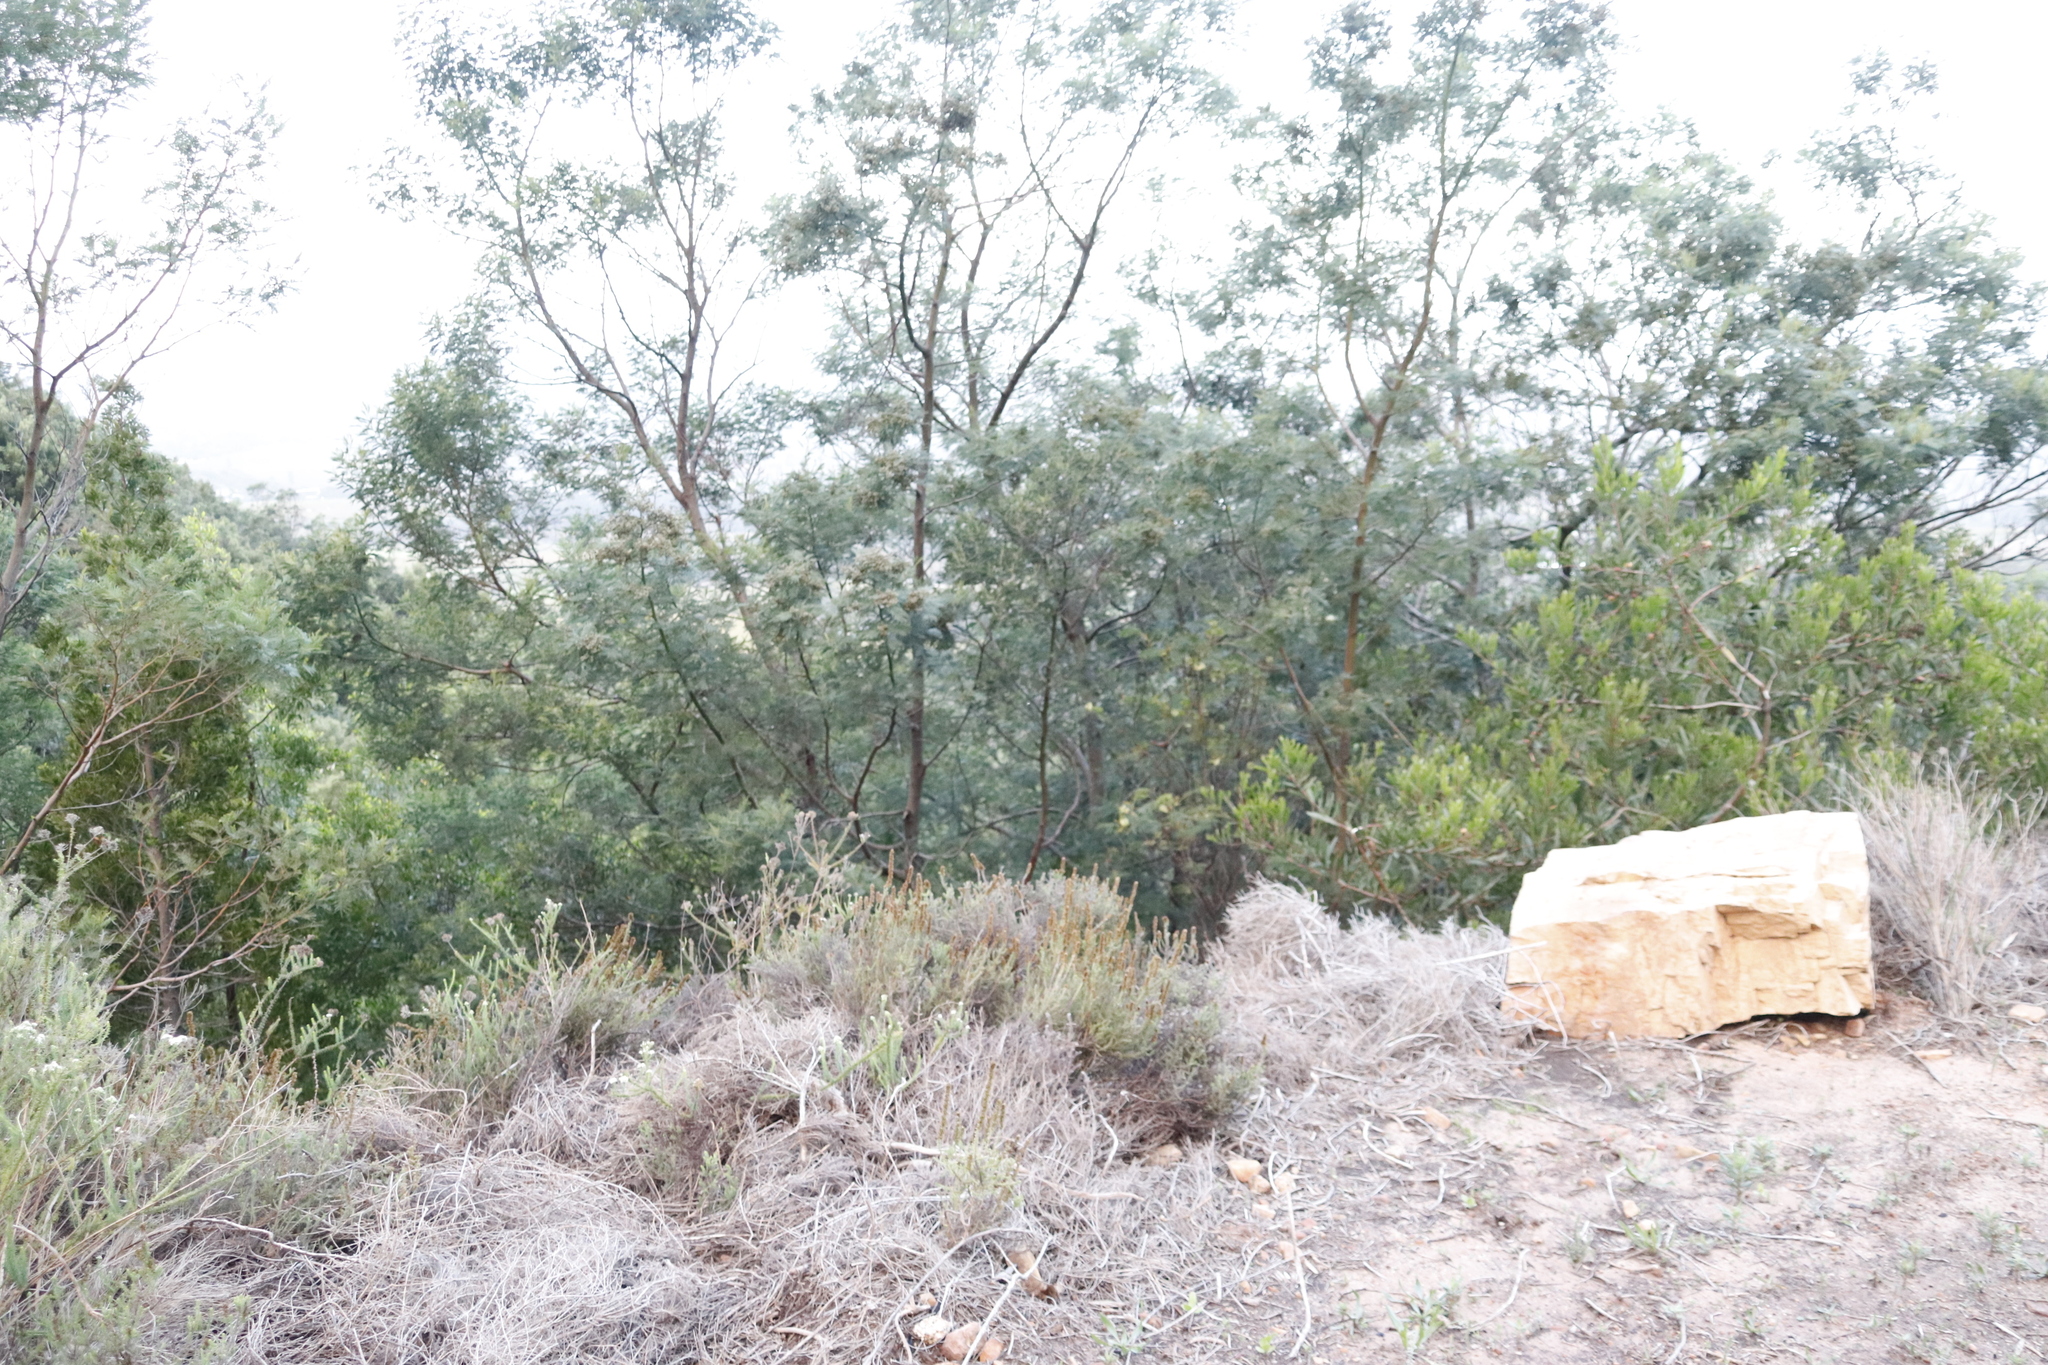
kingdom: Plantae
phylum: Tracheophyta
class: Magnoliopsida
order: Fabales
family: Fabaceae
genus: Acacia
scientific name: Acacia mearnsii
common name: Black wattle
